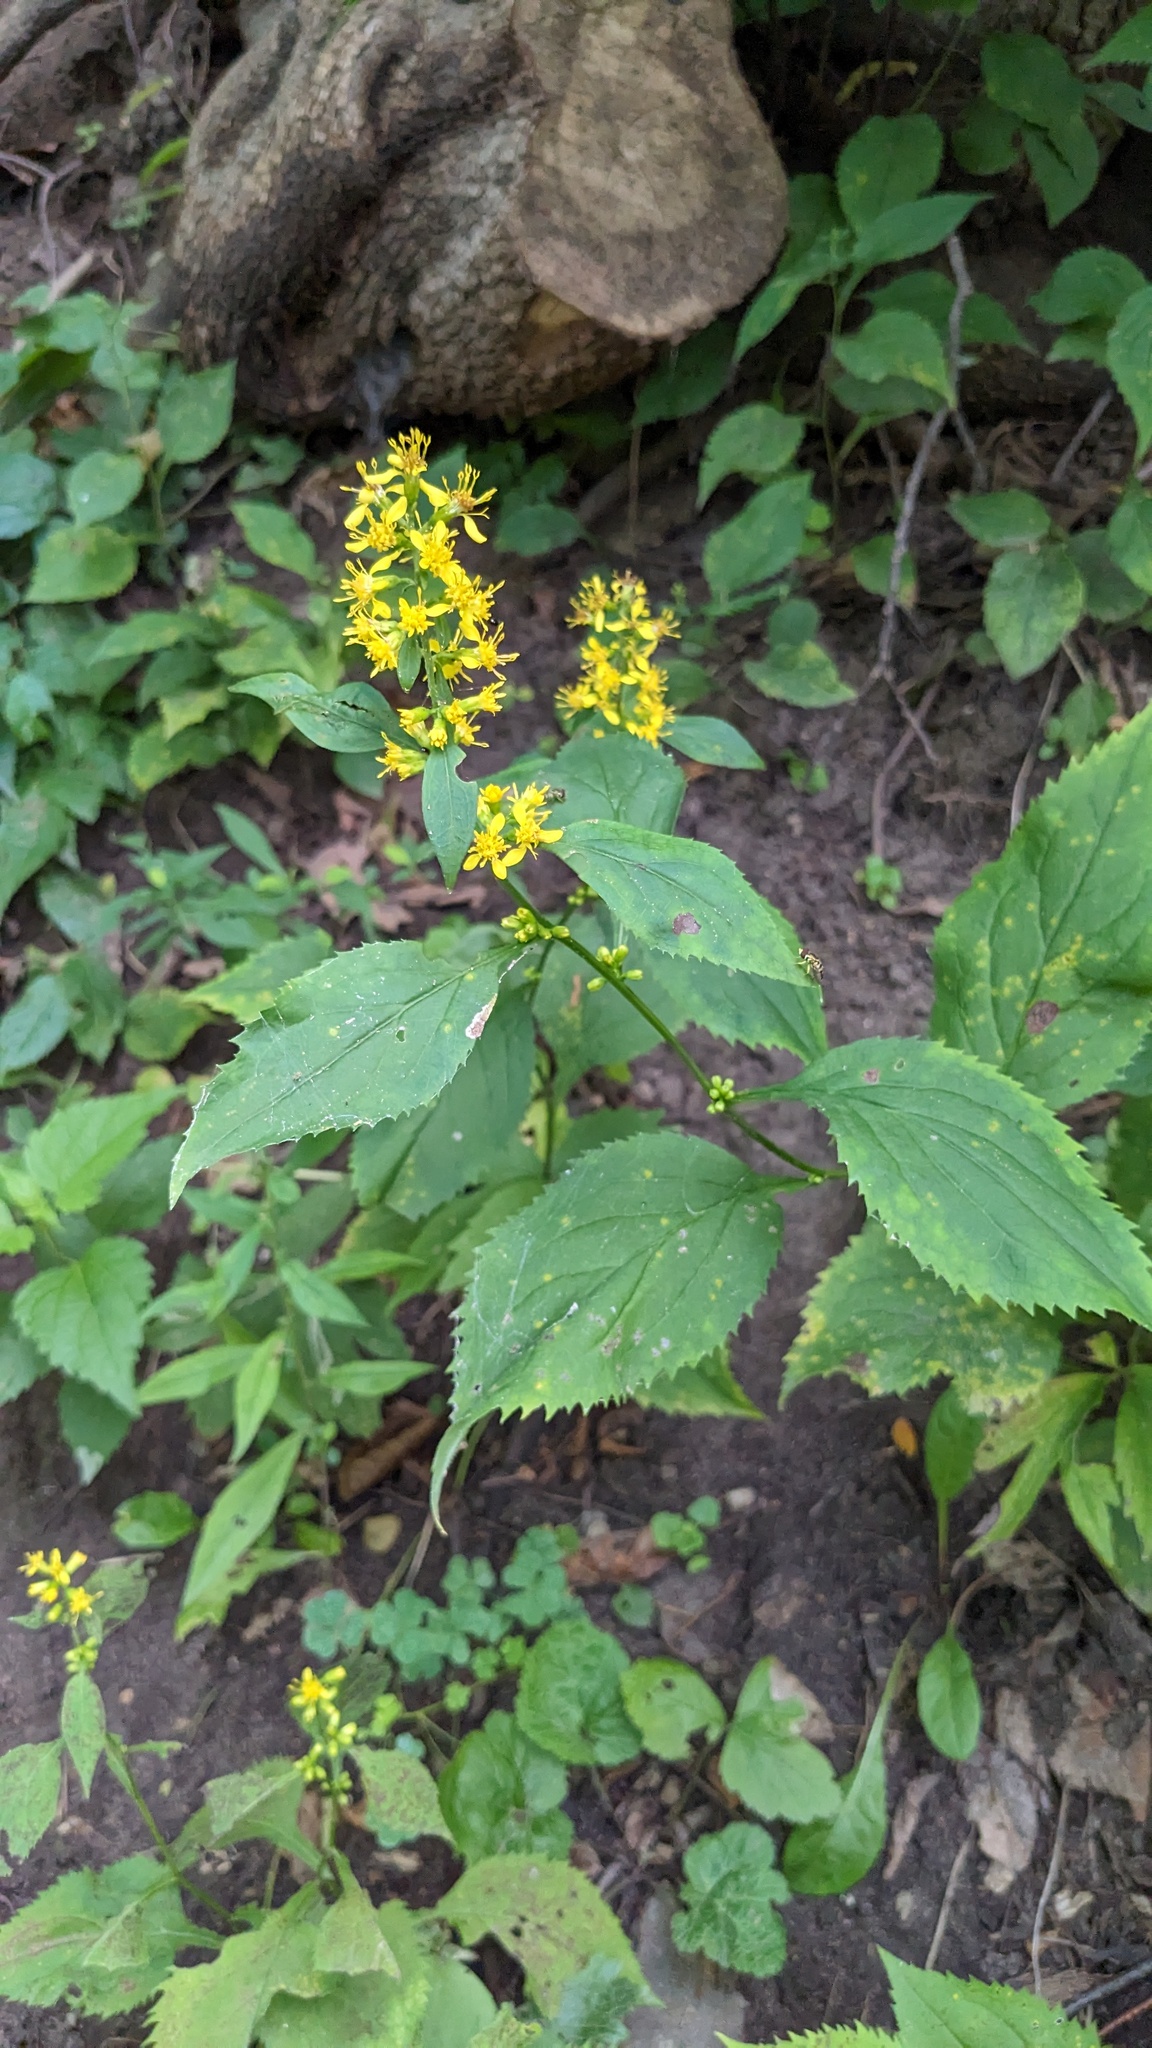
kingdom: Plantae
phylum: Tracheophyta
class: Magnoliopsida
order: Asterales
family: Asteraceae
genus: Solidago
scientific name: Solidago flexicaulis
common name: Zig-zag goldenrod
